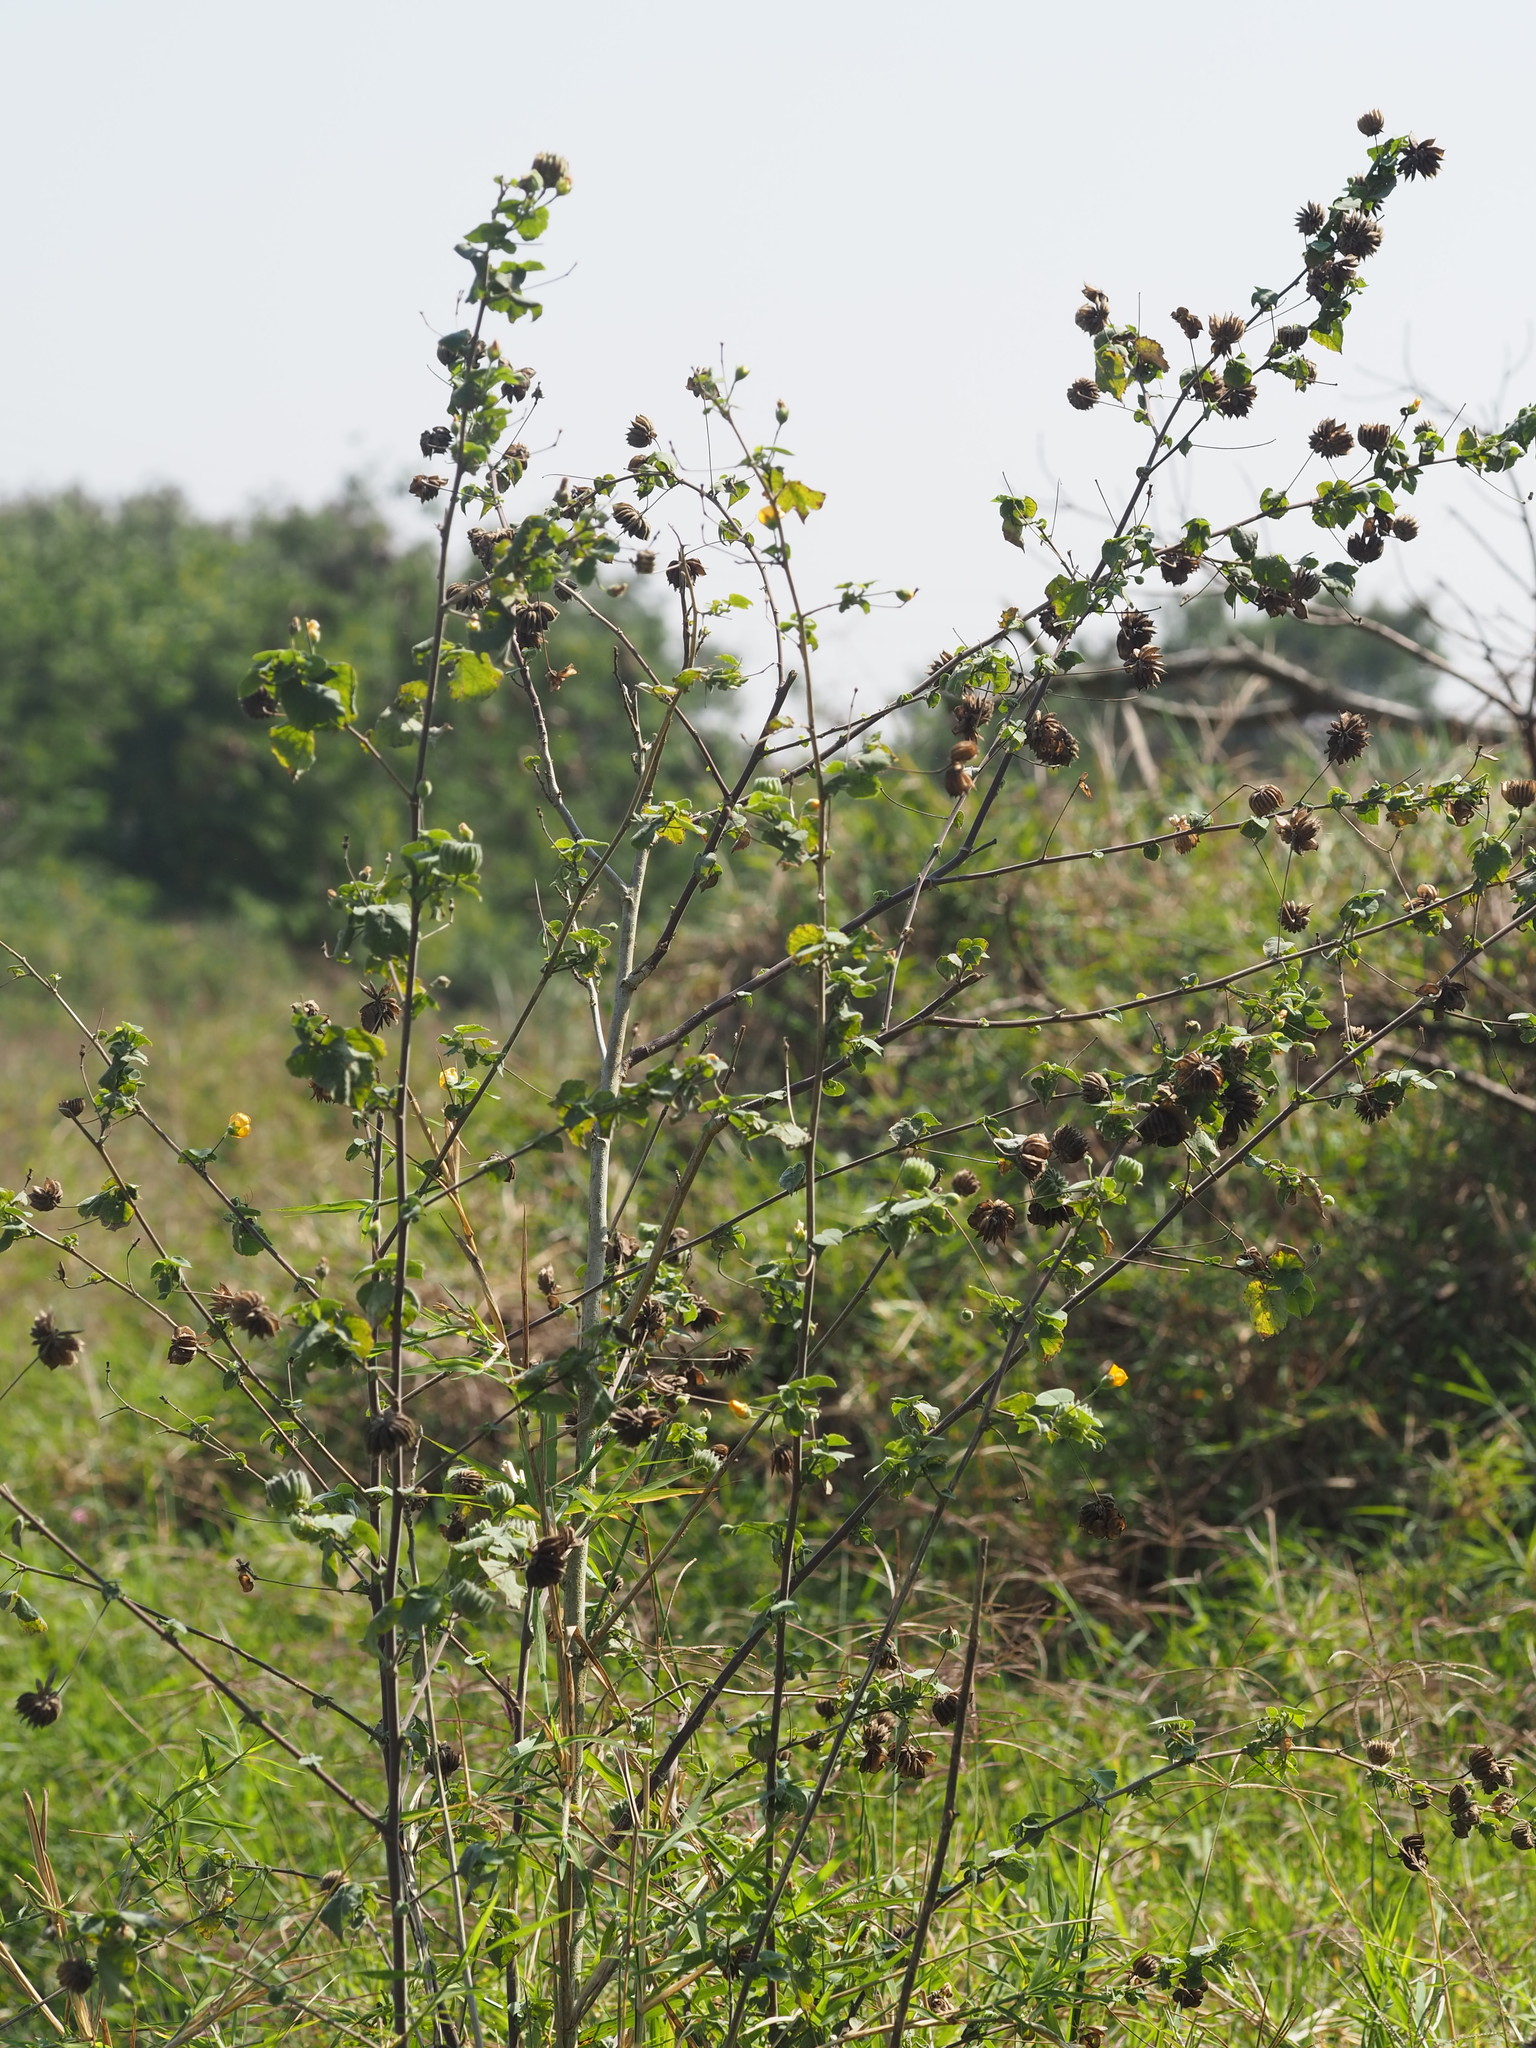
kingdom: Plantae
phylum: Tracheophyta
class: Magnoliopsida
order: Malvales
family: Malvaceae
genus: Abutilon
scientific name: Abutilon indicum
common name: Indian abutilon
